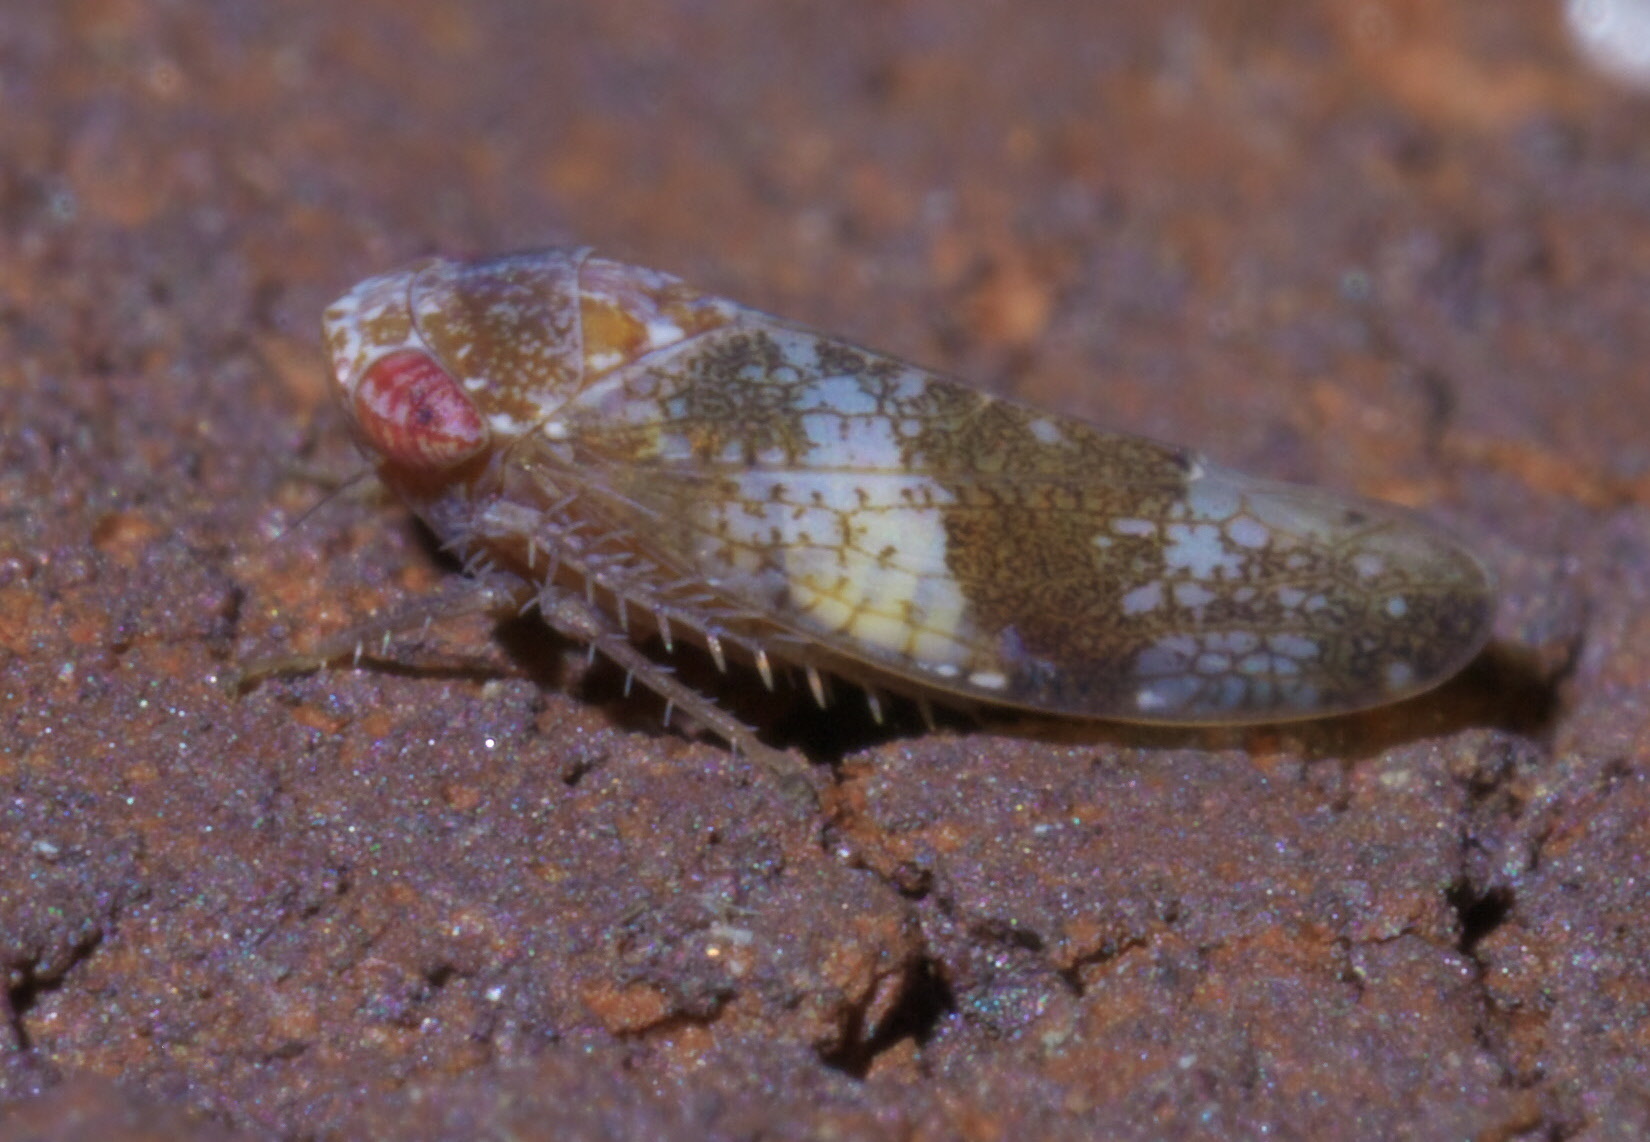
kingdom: Animalia
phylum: Arthropoda
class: Insecta
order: Hemiptera
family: Cicadellidae
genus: Norvellina
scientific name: Norvellina helenae
